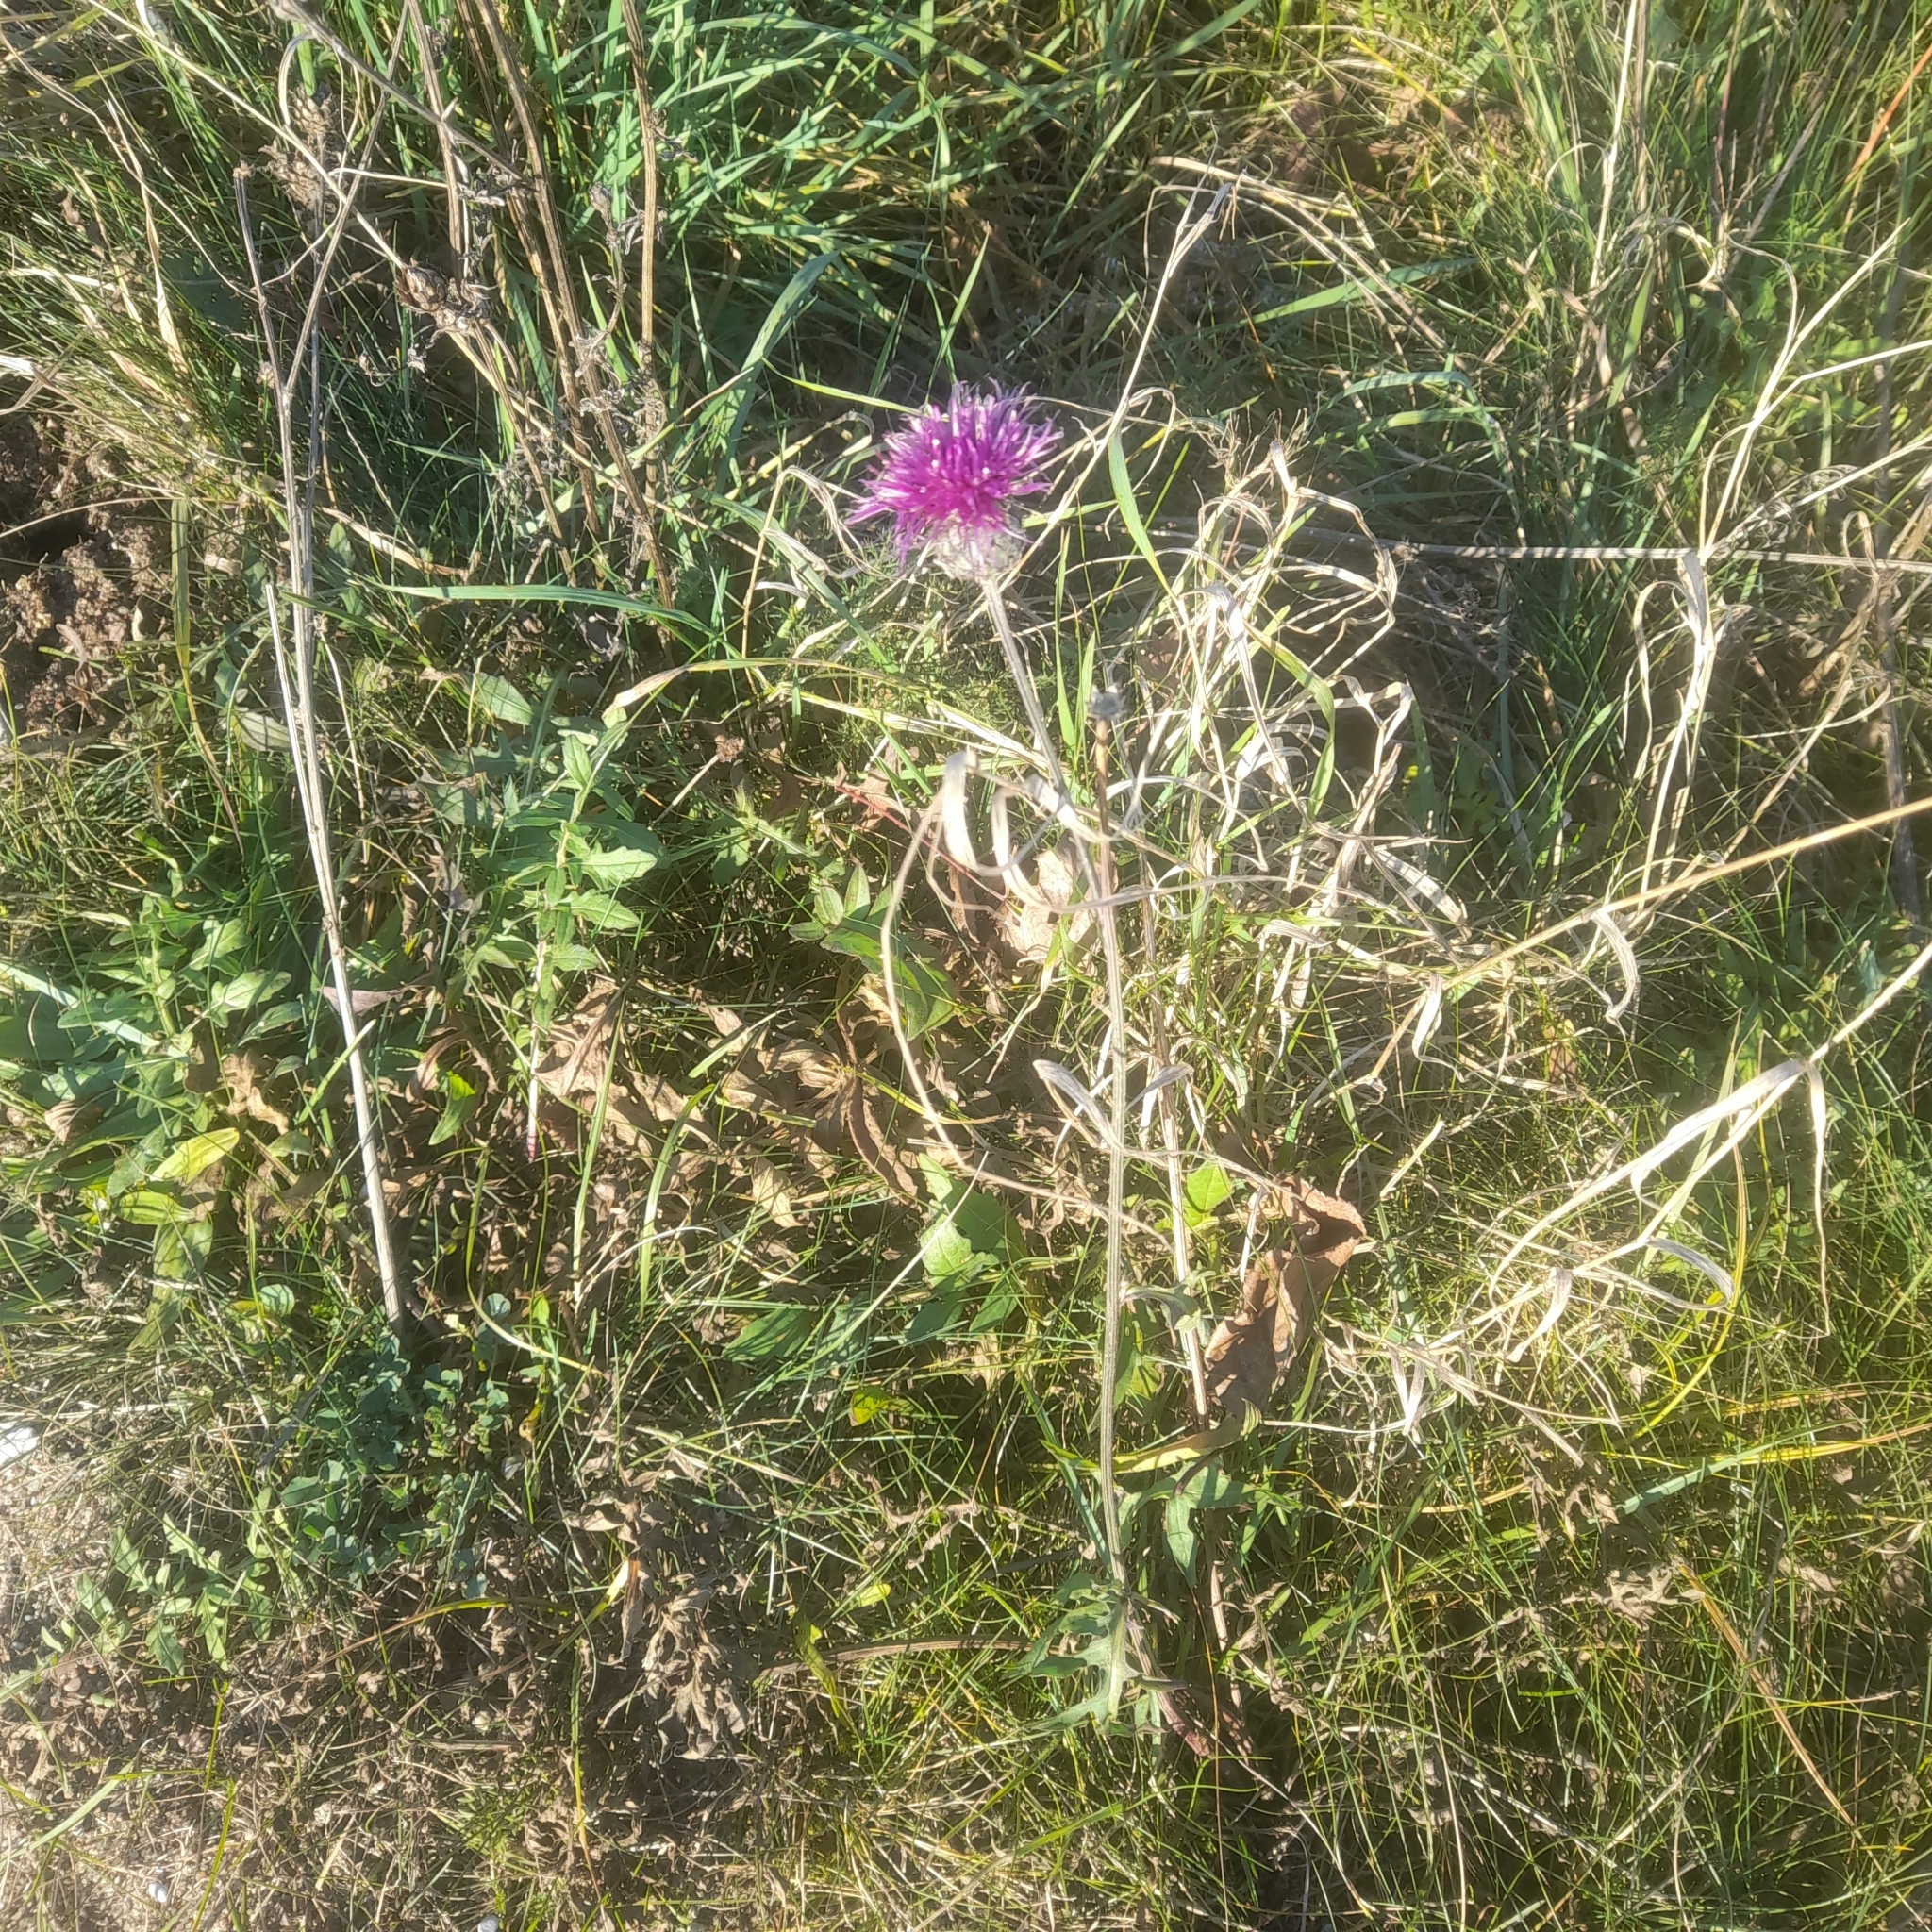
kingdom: Plantae
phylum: Tracheophyta
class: Magnoliopsida
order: Asterales
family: Asteraceae
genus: Centaurea
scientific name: Centaurea scabiosa
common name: Greater knapweed
